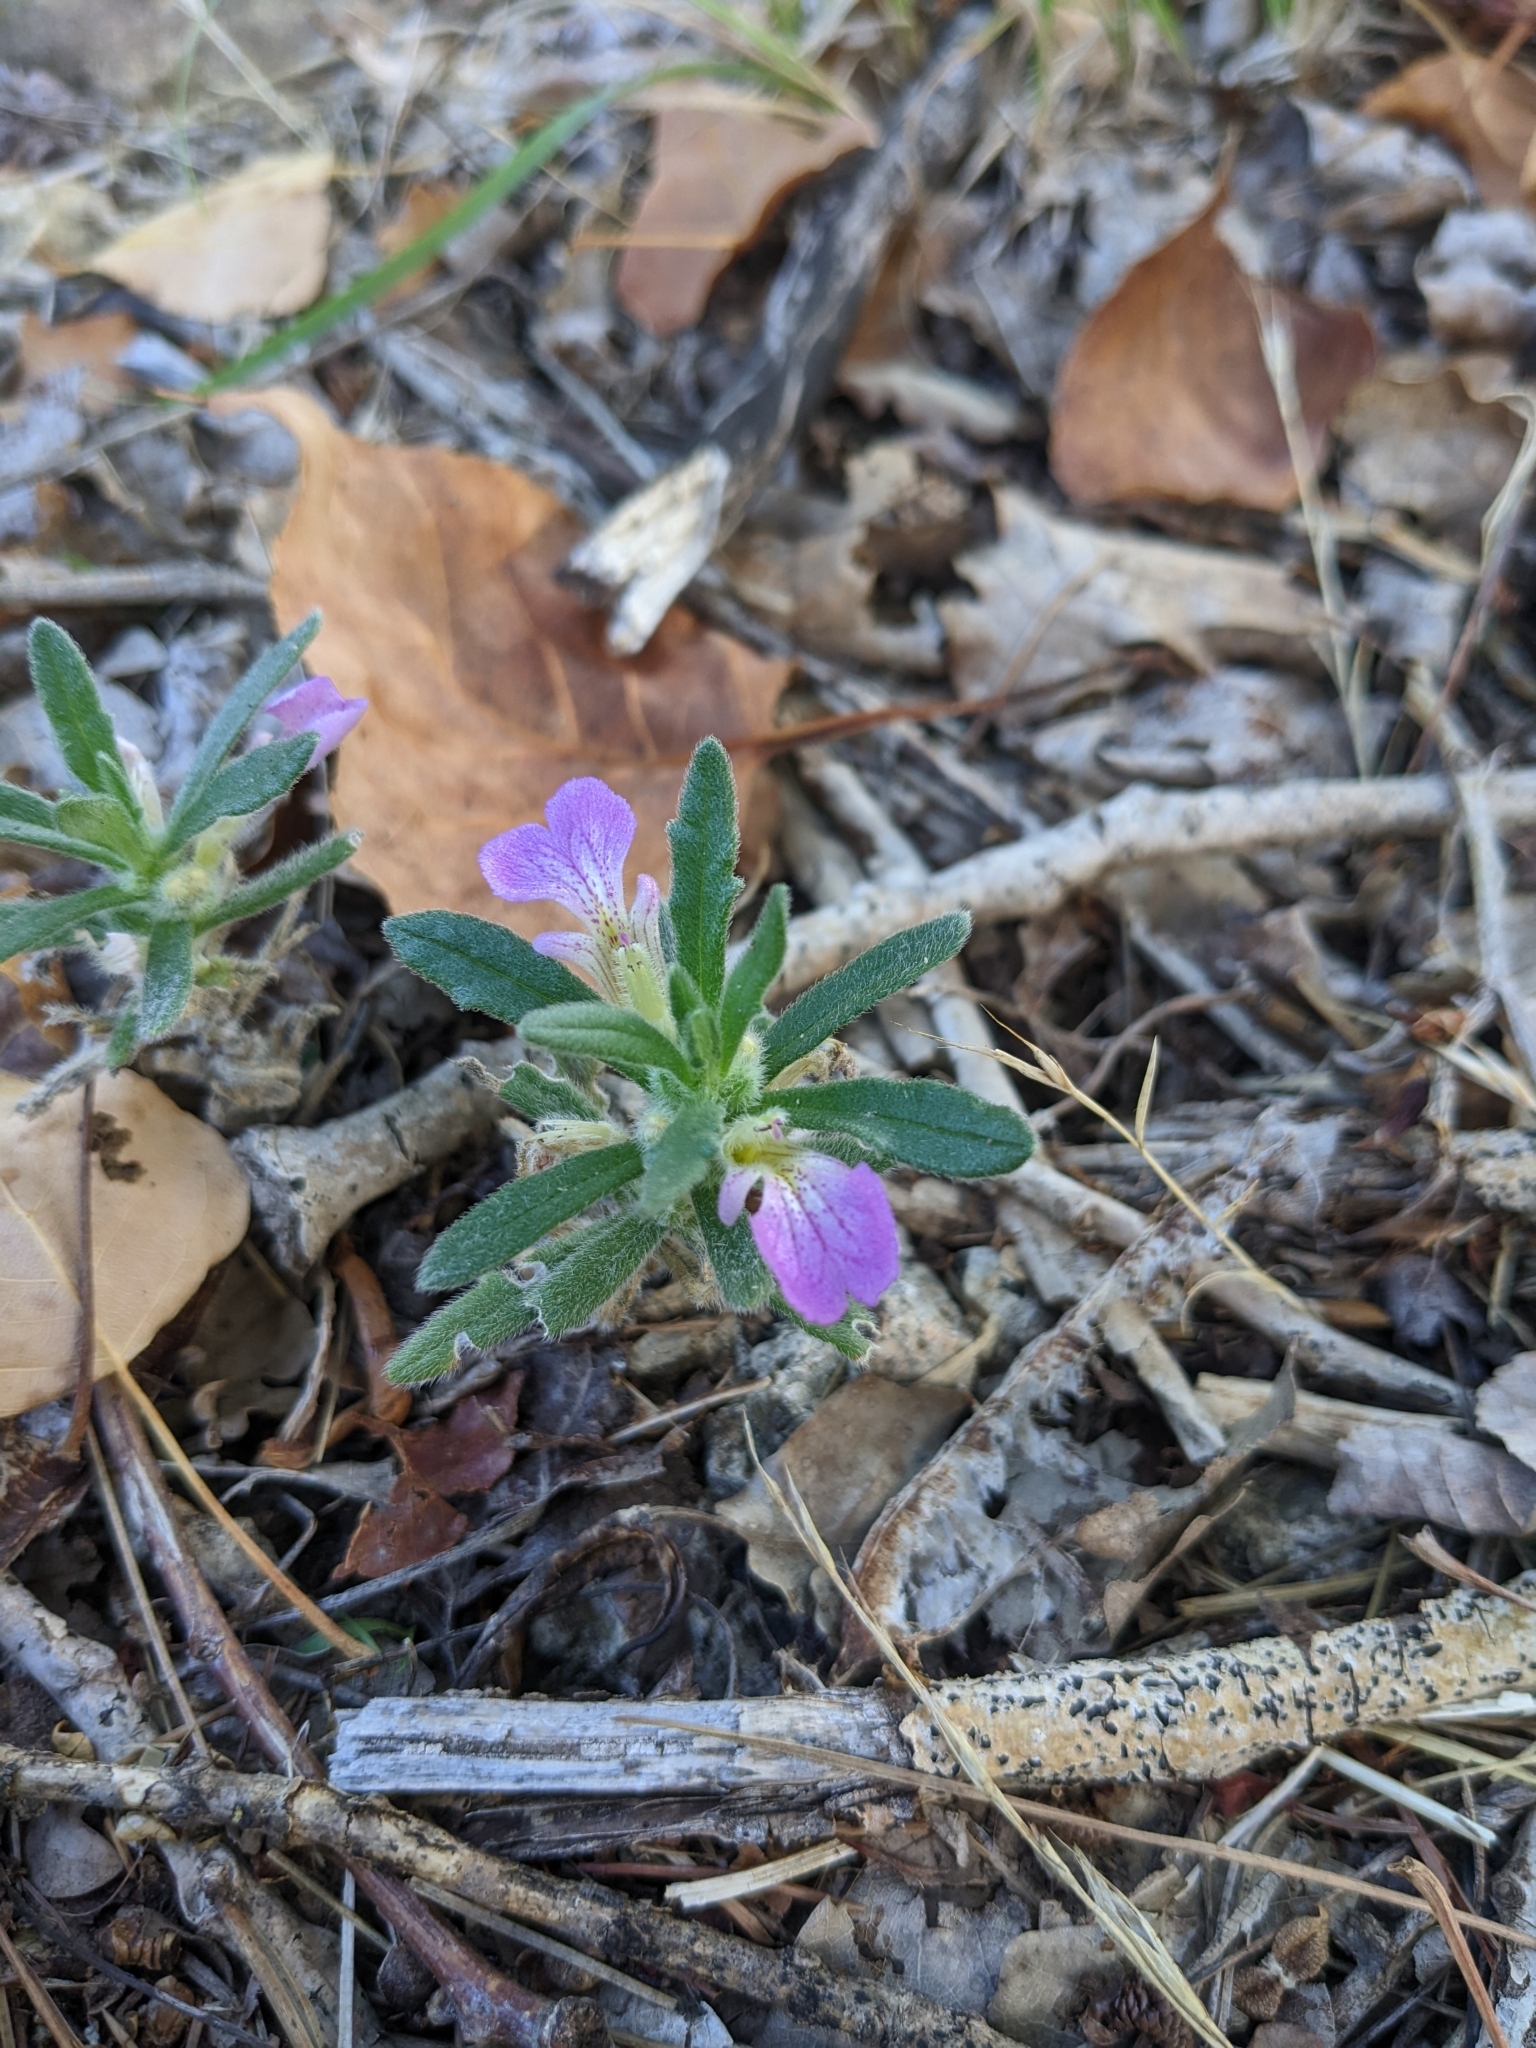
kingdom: Plantae
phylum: Tracheophyta
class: Magnoliopsida
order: Lamiales
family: Lamiaceae
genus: Ajuga
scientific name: Ajuga iva
